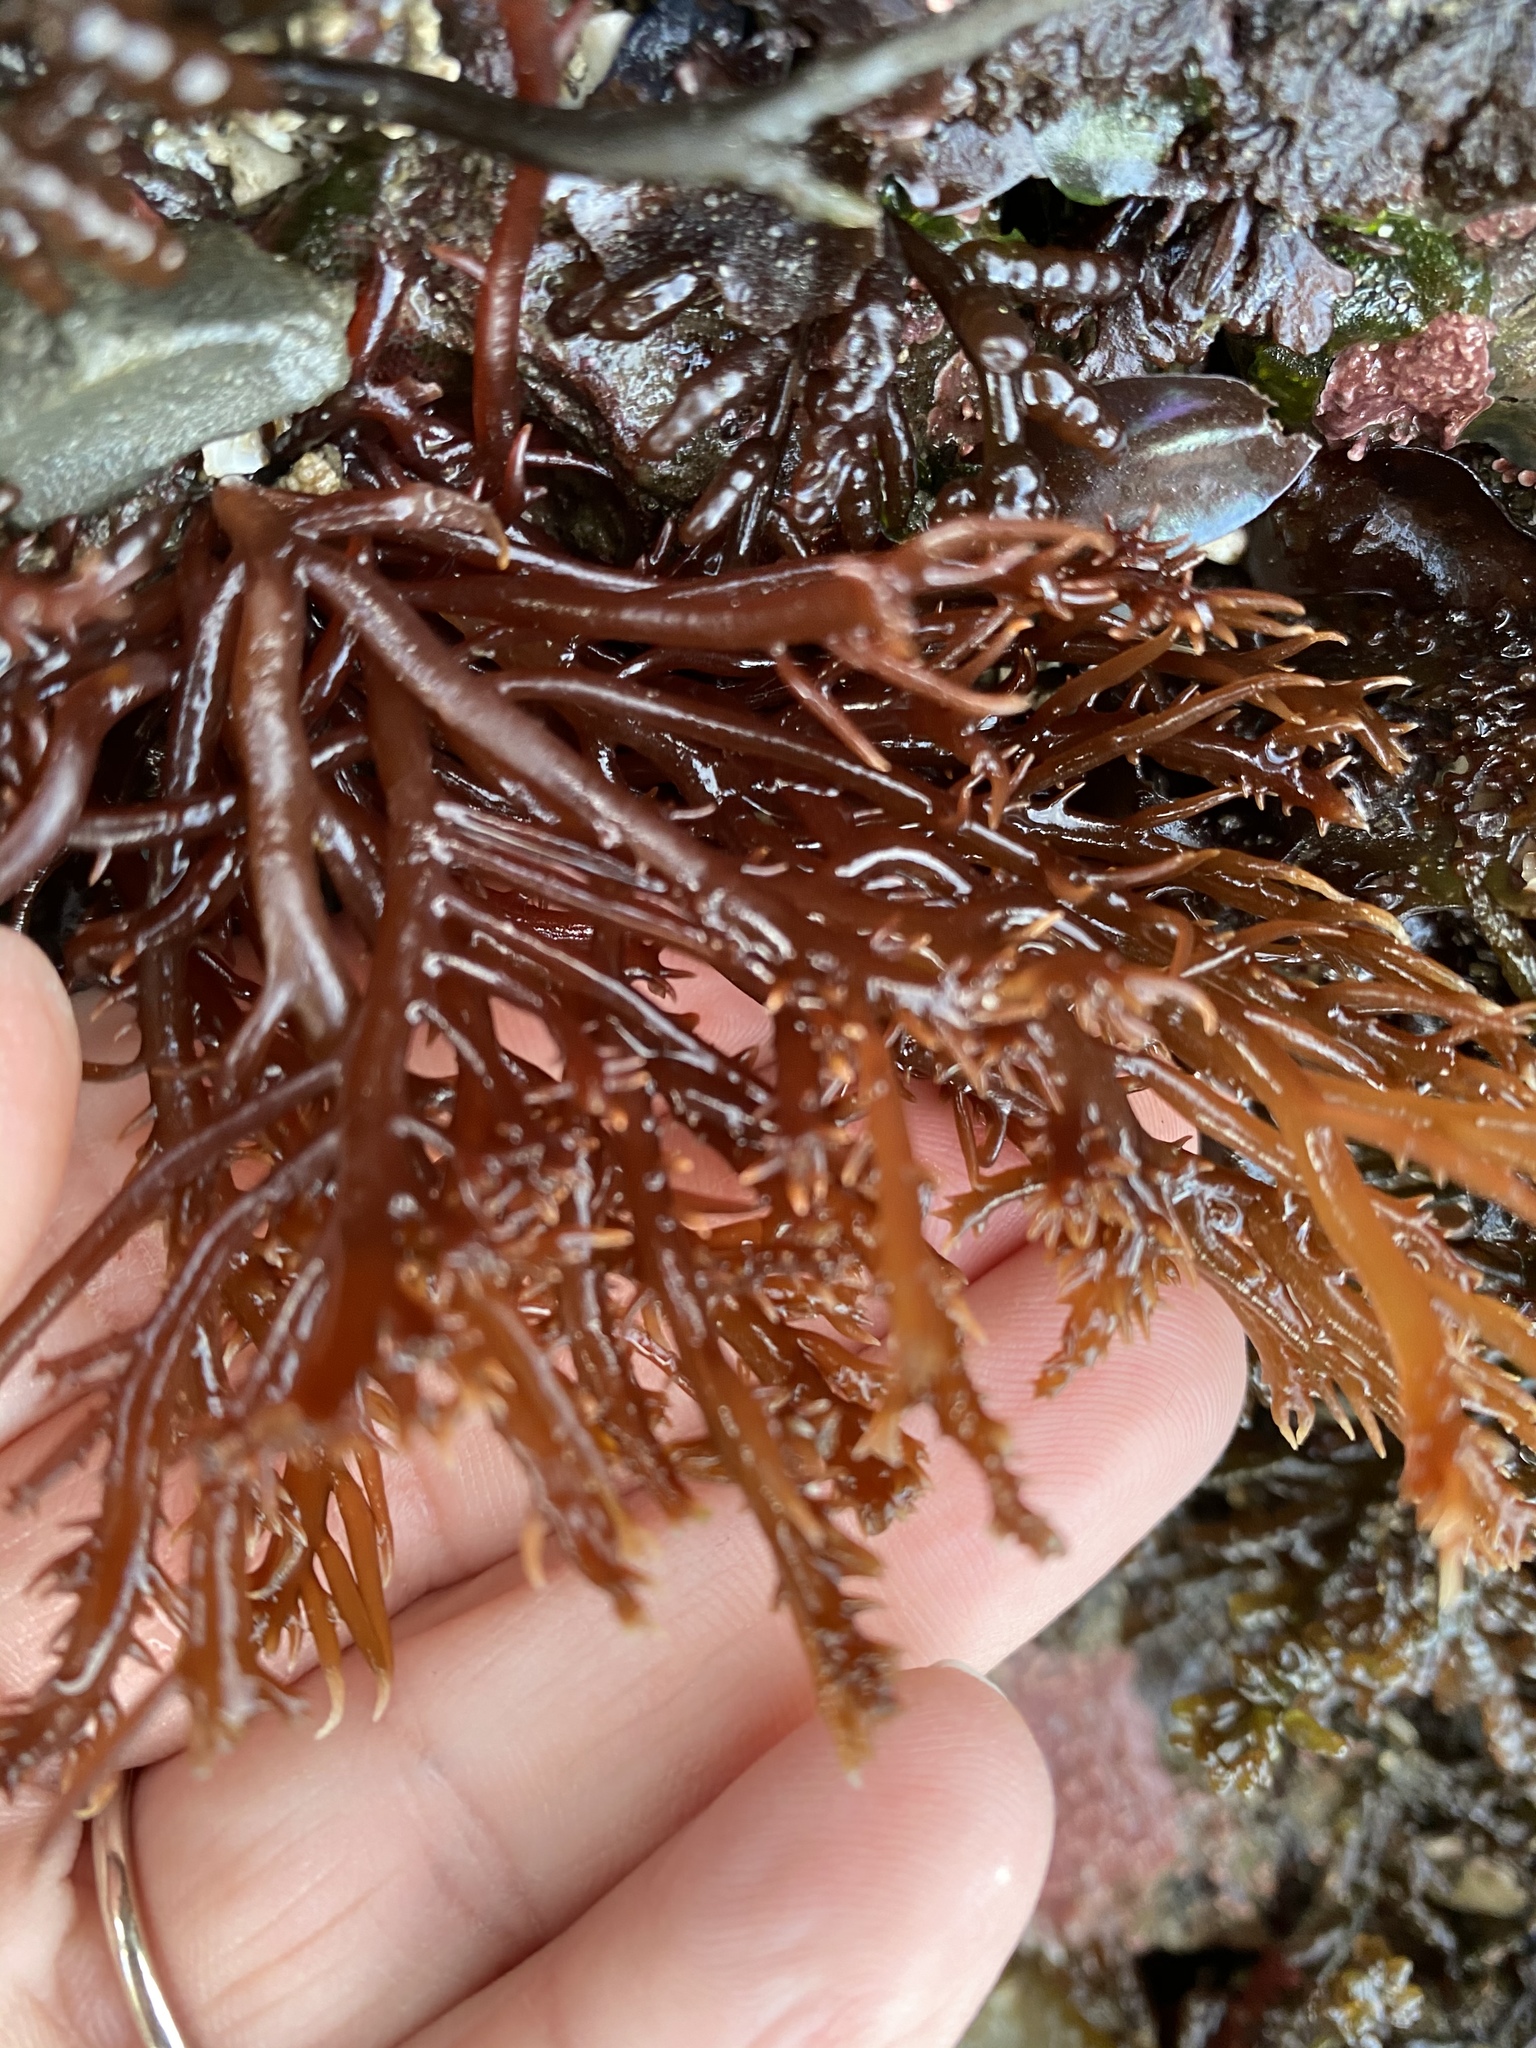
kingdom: Plantae
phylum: Rhodophyta
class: Florideophyceae
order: Gigartinales
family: Solieriaceae
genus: Sarcodiotheca
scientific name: Sarcodiotheca gaudichaudii
